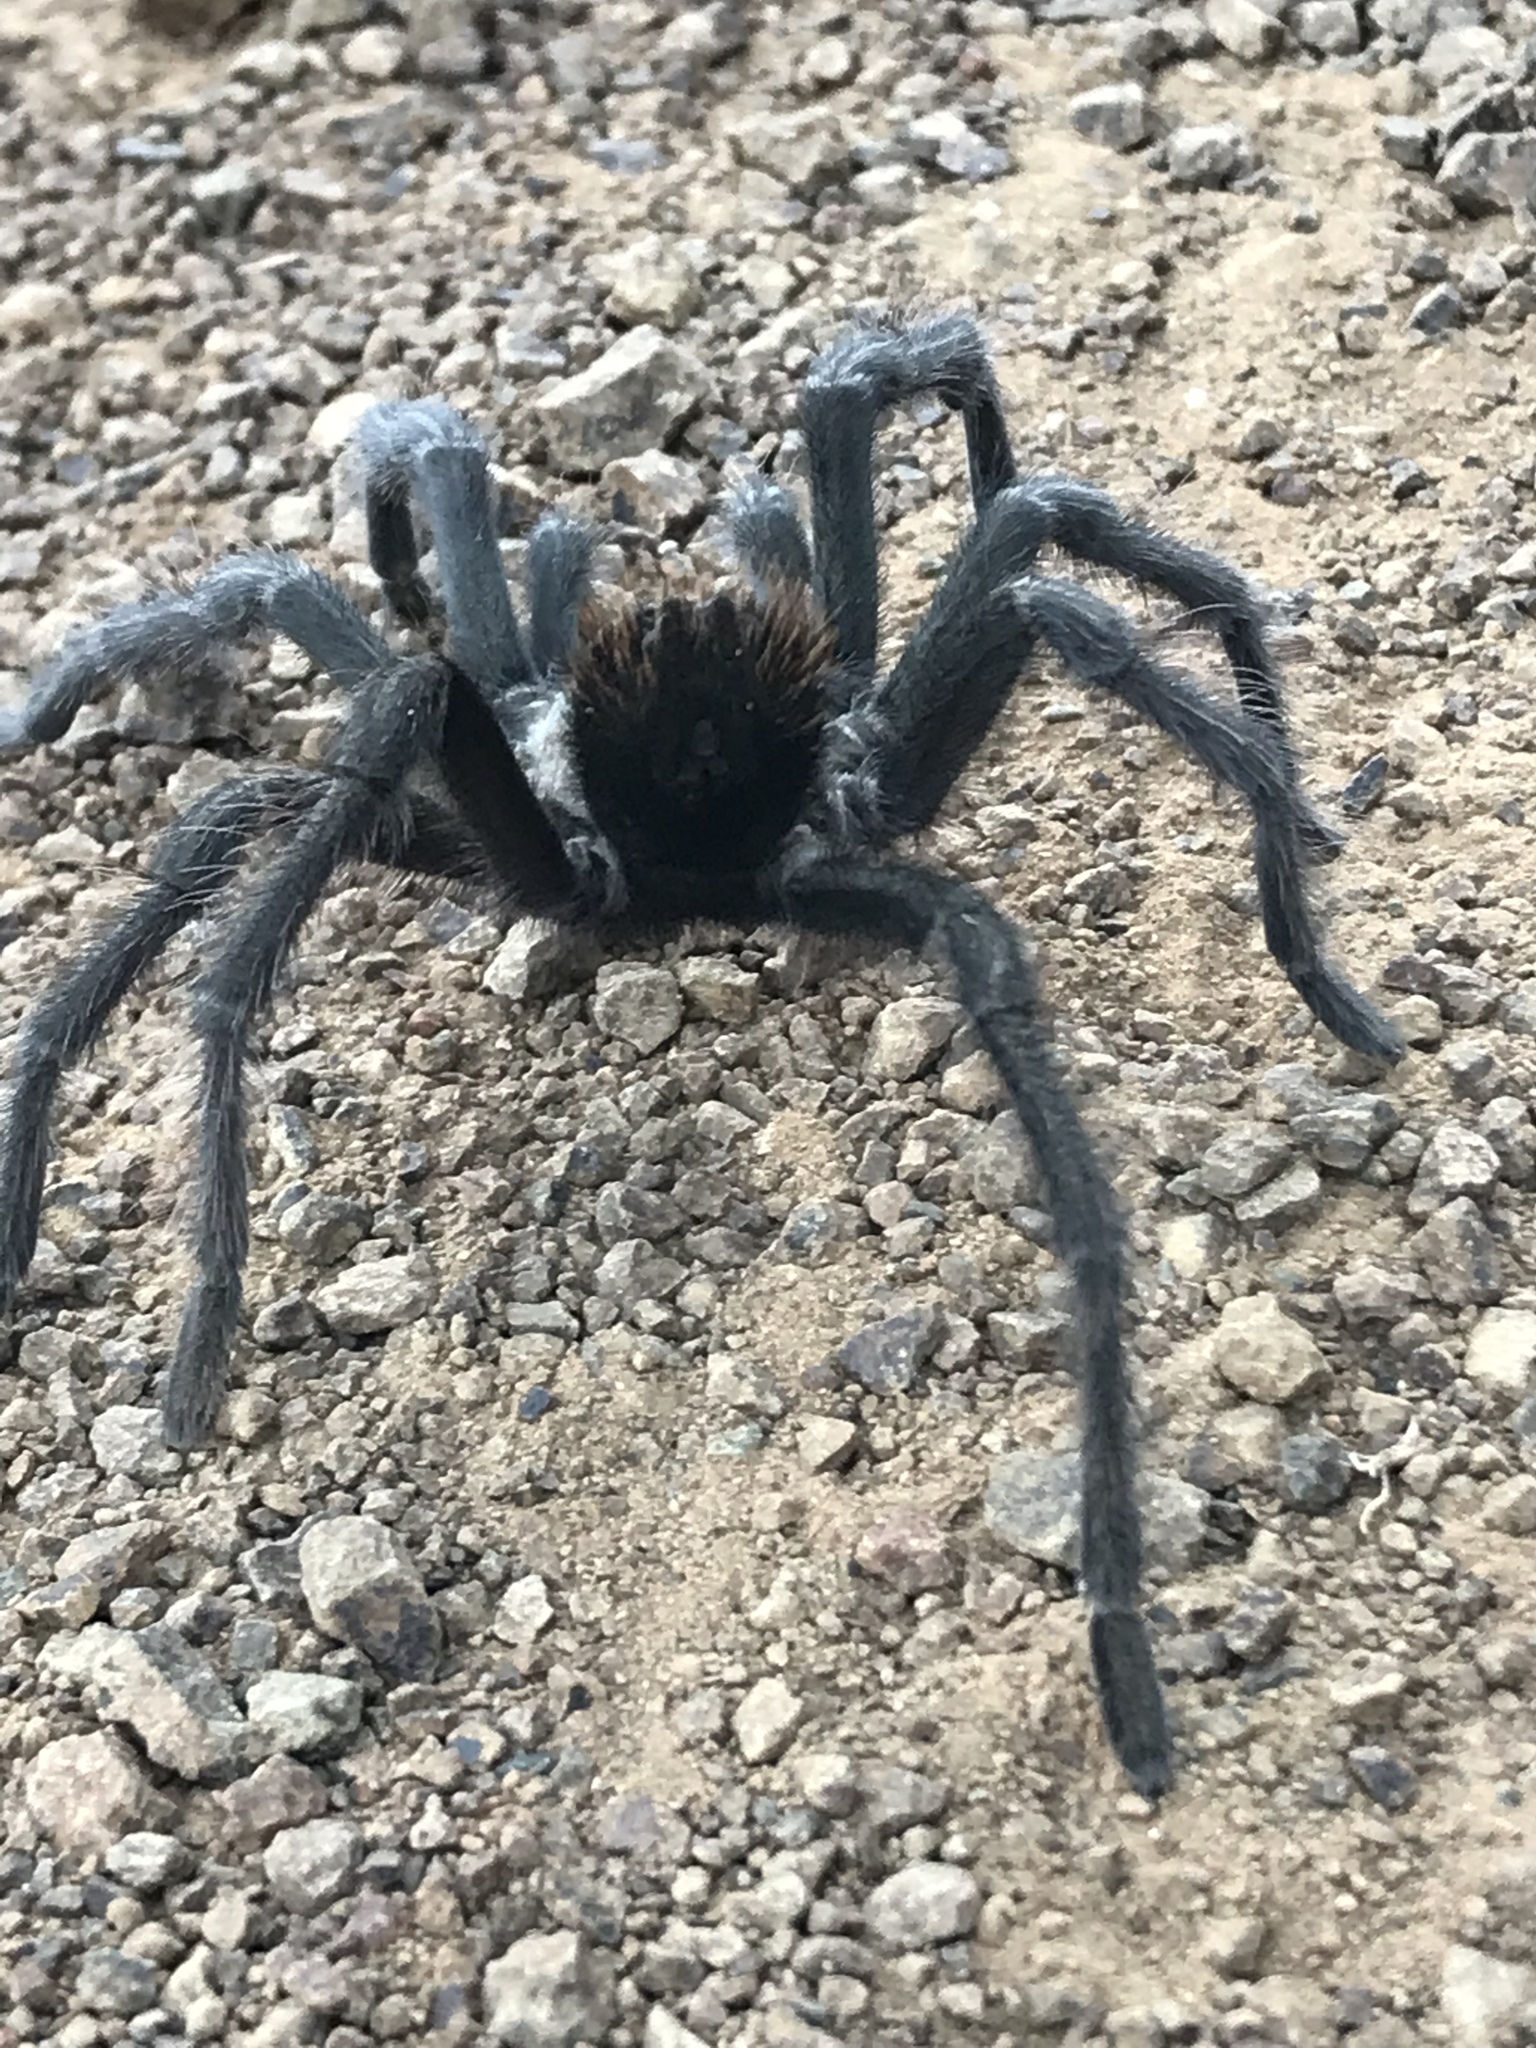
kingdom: Animalia
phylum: Arthropoda
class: Arachnida
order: Araneae
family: Theraphosidae
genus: Aphonopelma
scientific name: Aphonopelma iodius
